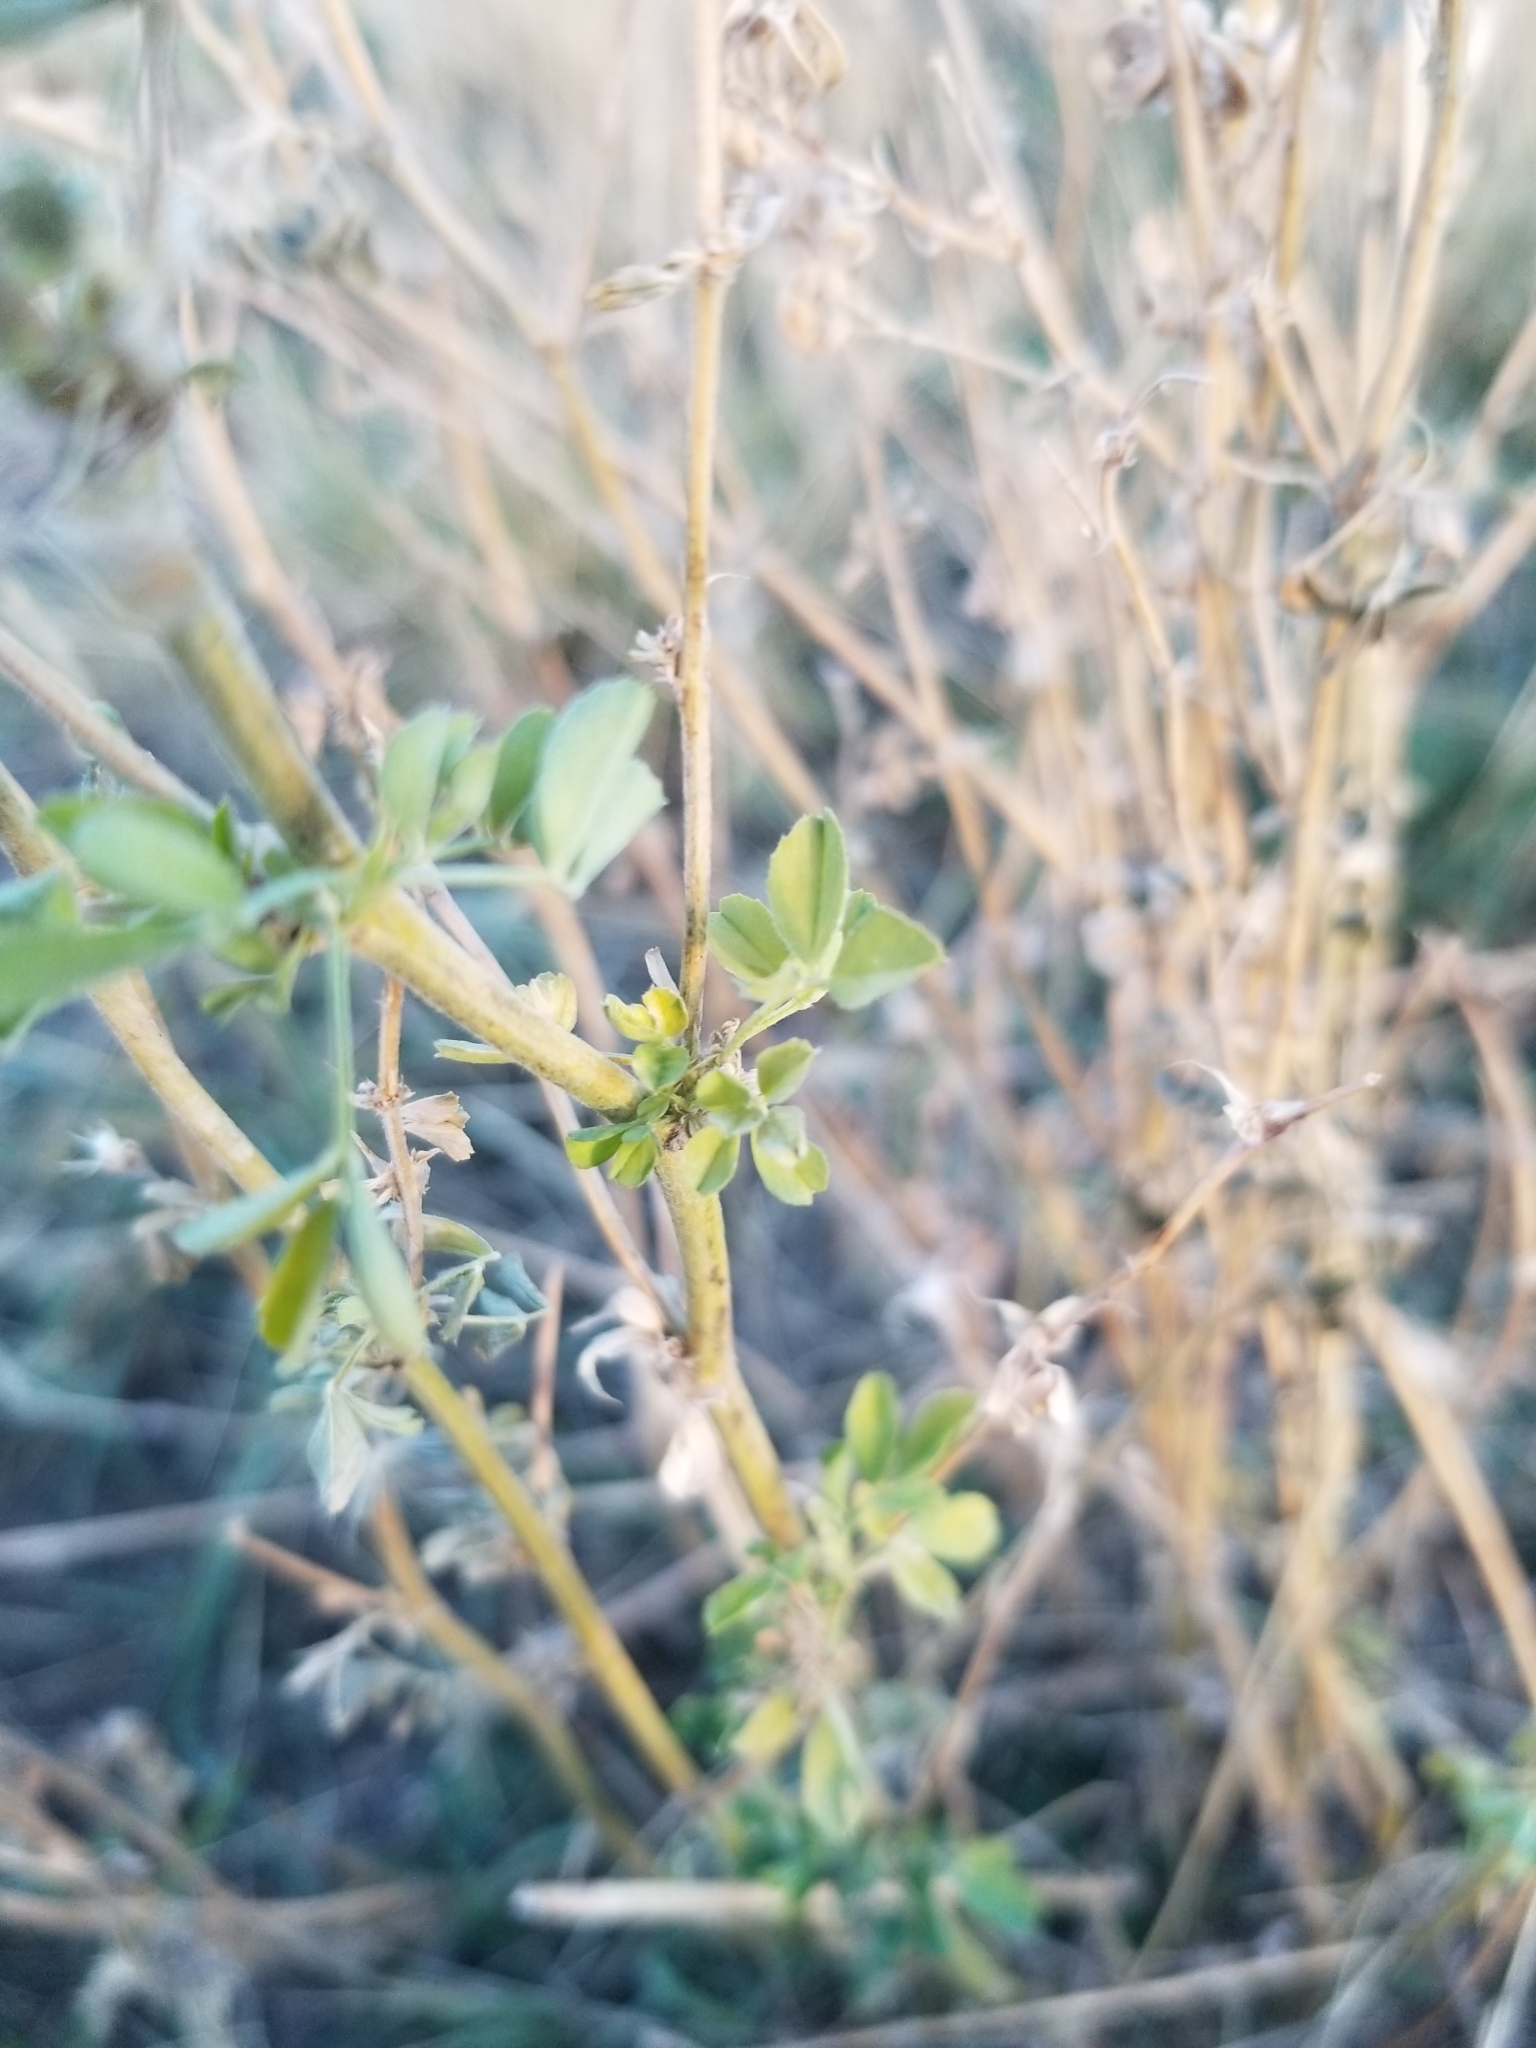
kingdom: Plantae
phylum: Tracheophyta
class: Magnoliopsida
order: Fabales
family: Fabaceae
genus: Medicago
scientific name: Medicago sativa
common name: Alfalfa
